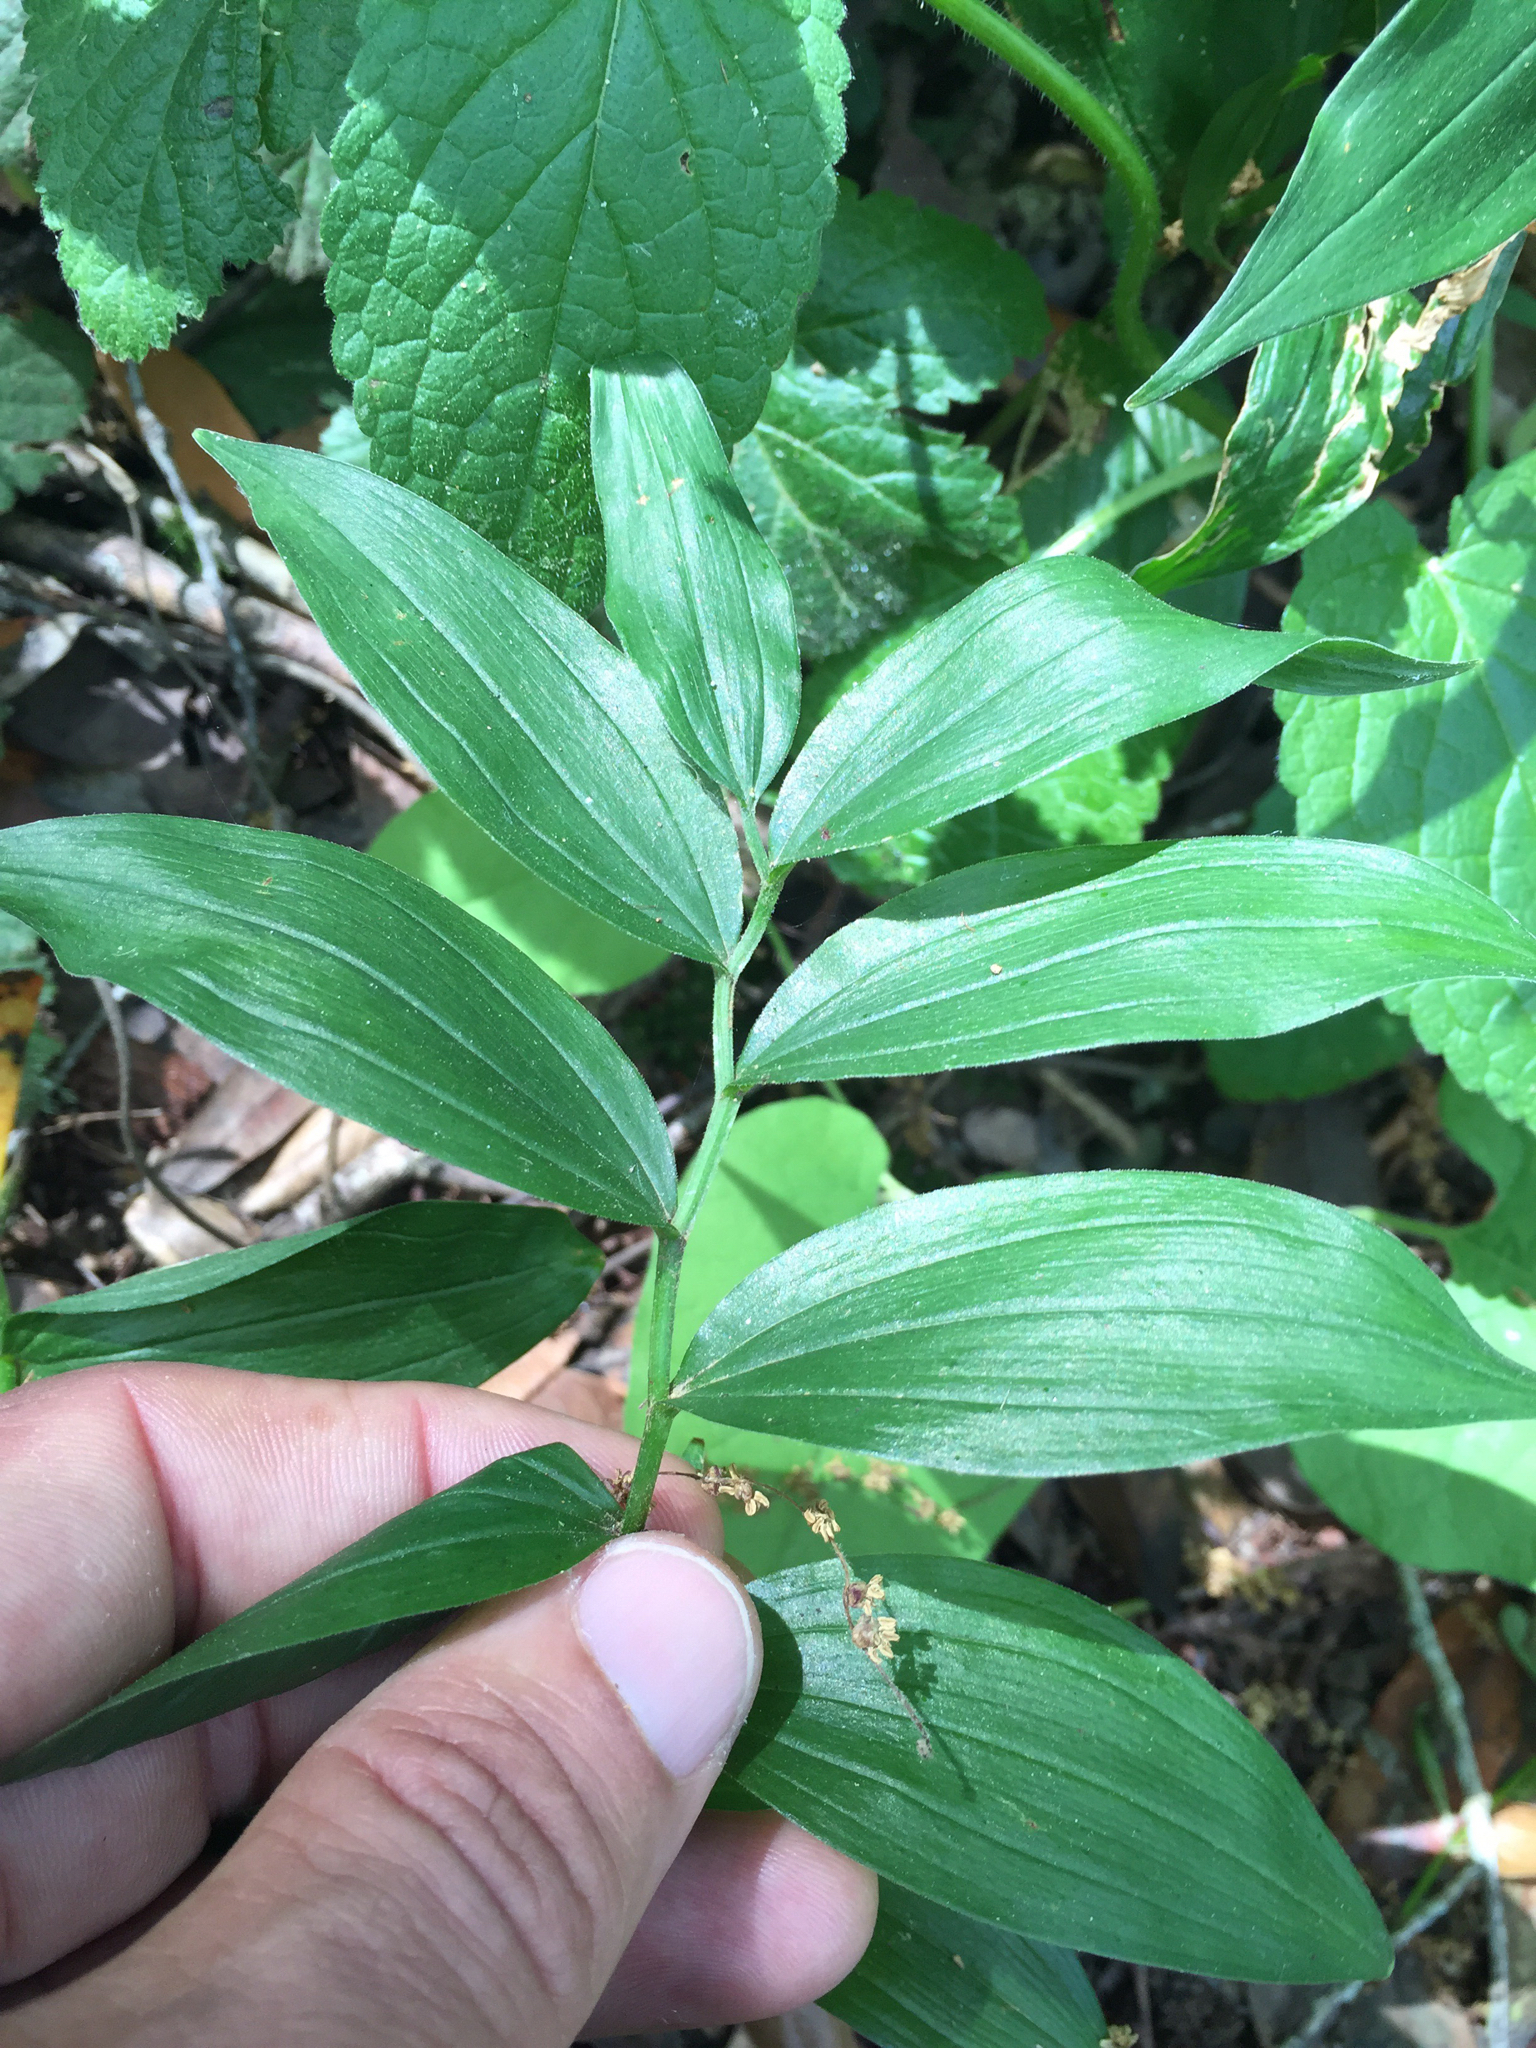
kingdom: Plantae
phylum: Tracheophyta
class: Liliopsida
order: Asparagales
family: Asparagaceae
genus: Maianthemum
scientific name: Maianthemum stellatum
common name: Little false solomon's seal
